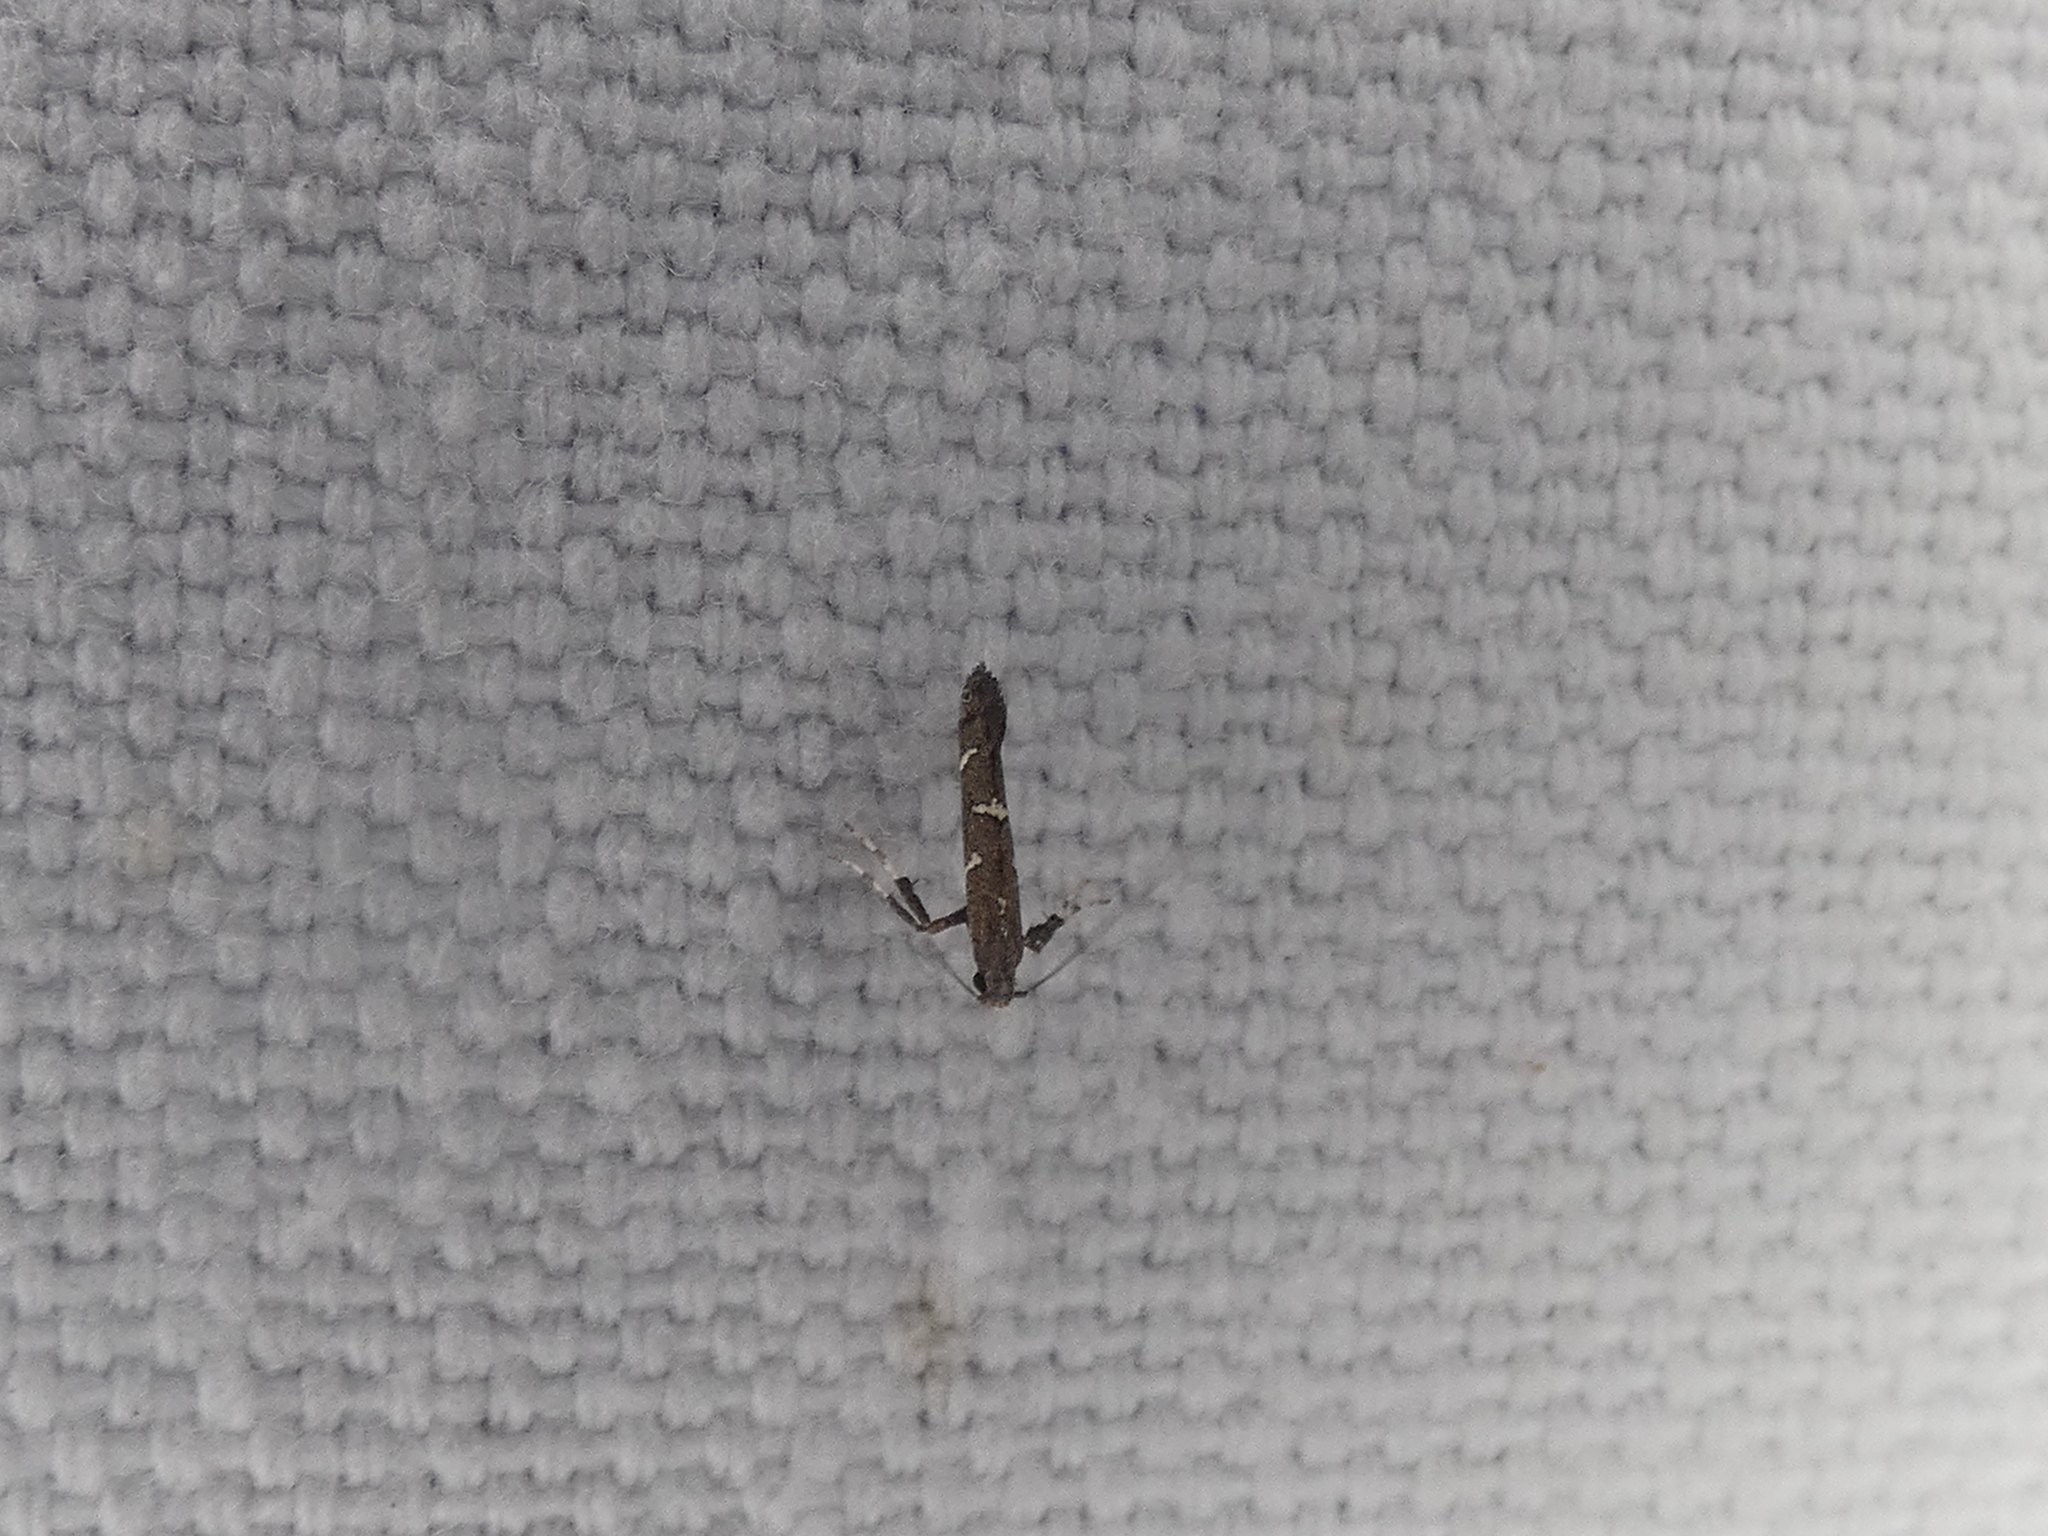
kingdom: Animalia
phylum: Arthropoda
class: Insecta
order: Lepidoptera
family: Gracillariidae
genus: Caloptilia
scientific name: Caloptilia triadicae
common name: Tallow leaf roller
